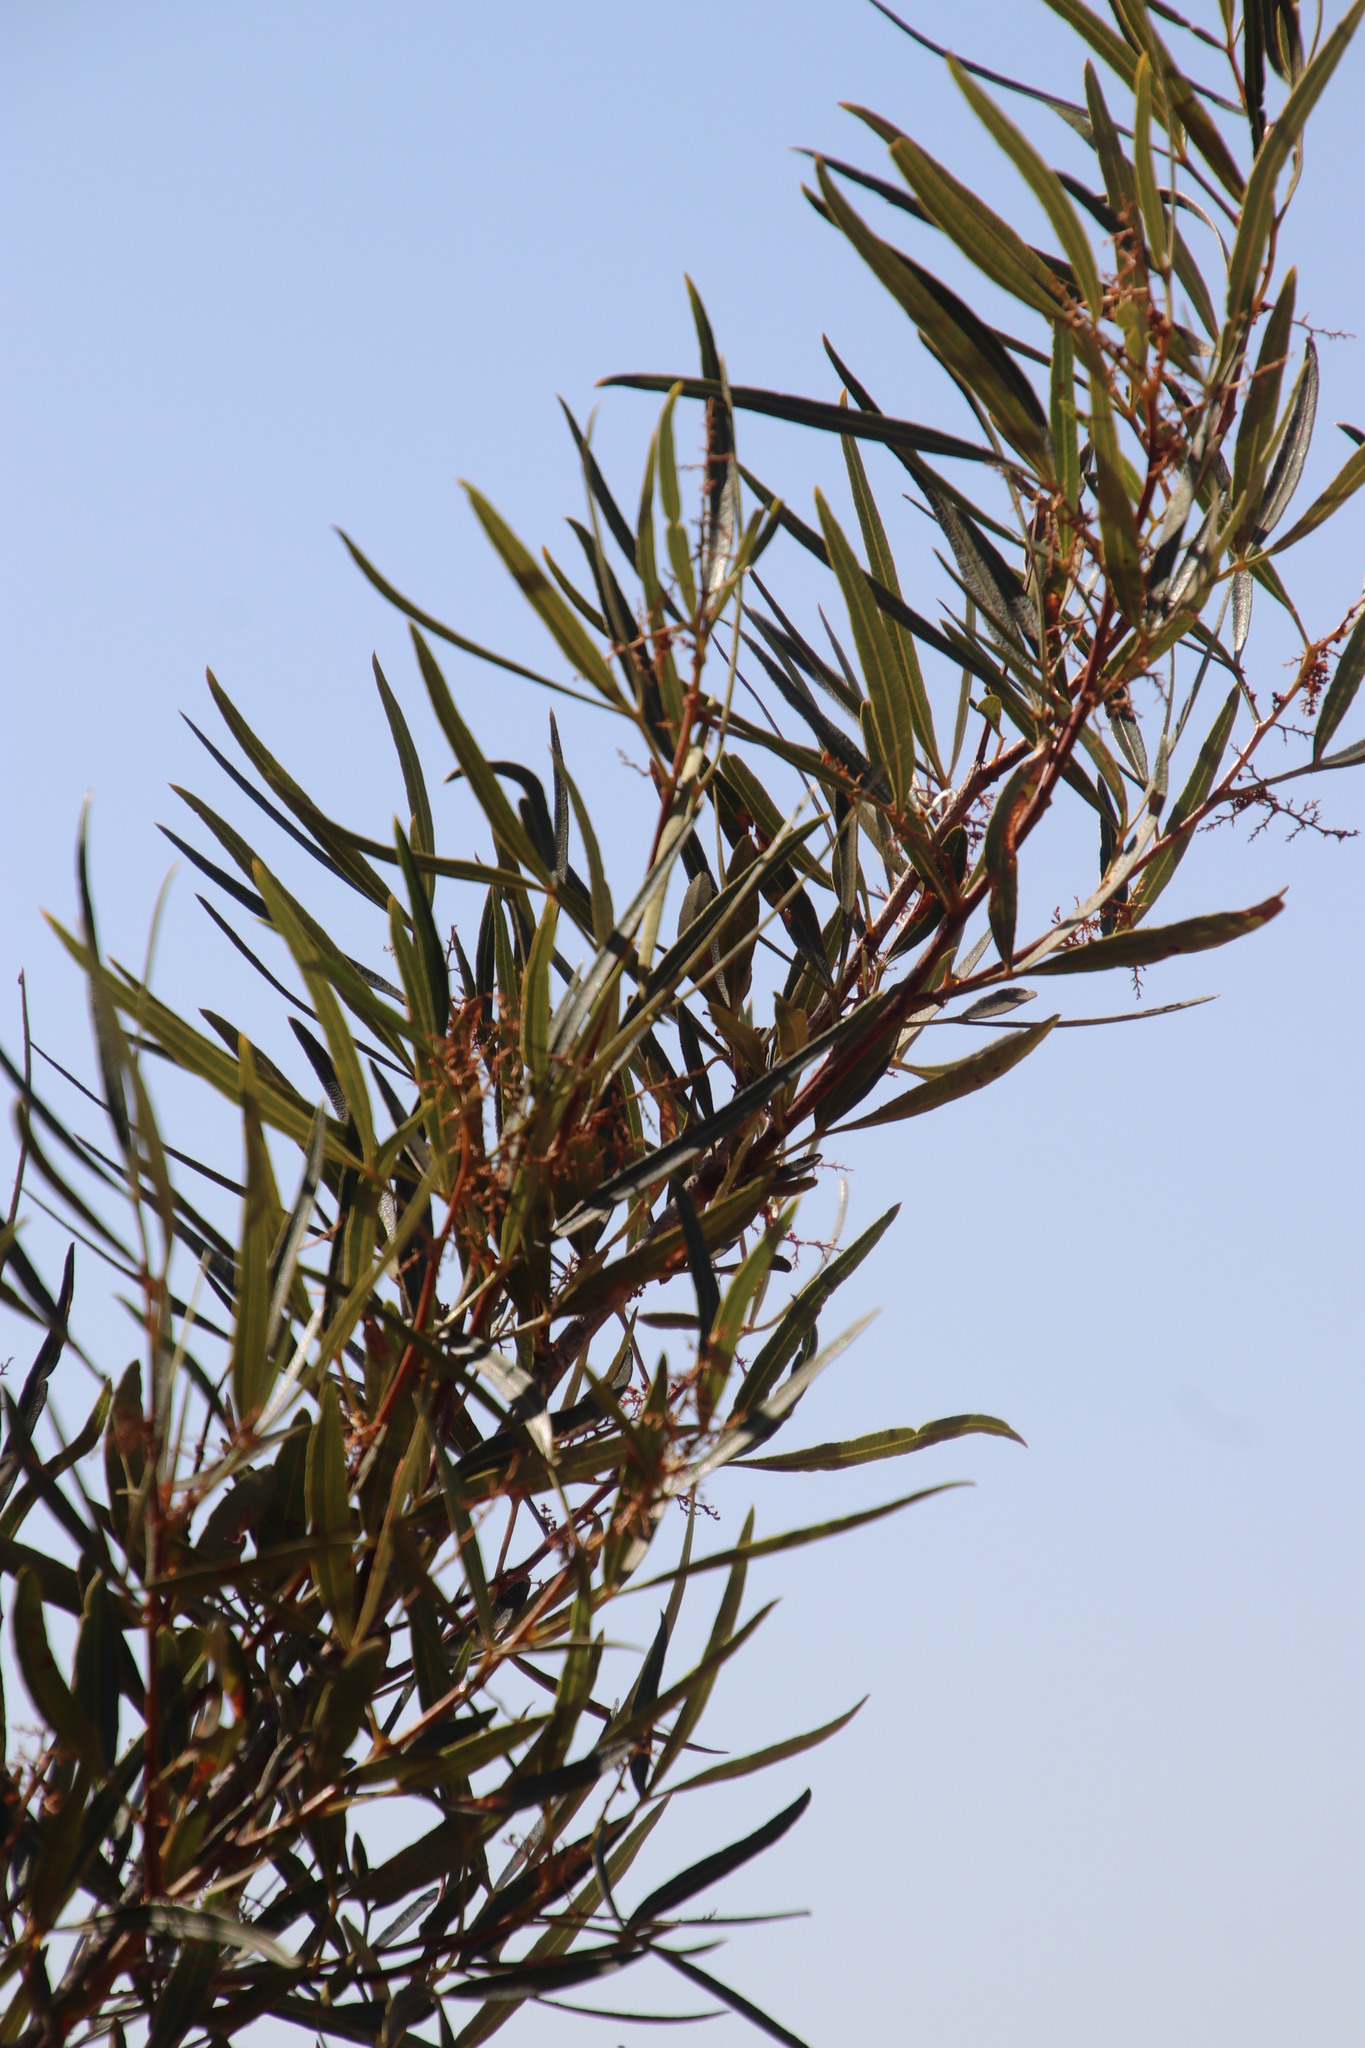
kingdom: Plantae
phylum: Tracheophyta
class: Magnoliopsida
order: Sapindales
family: Anacardiaceae
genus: Searsia
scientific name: Searsia lancea
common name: Cashew
